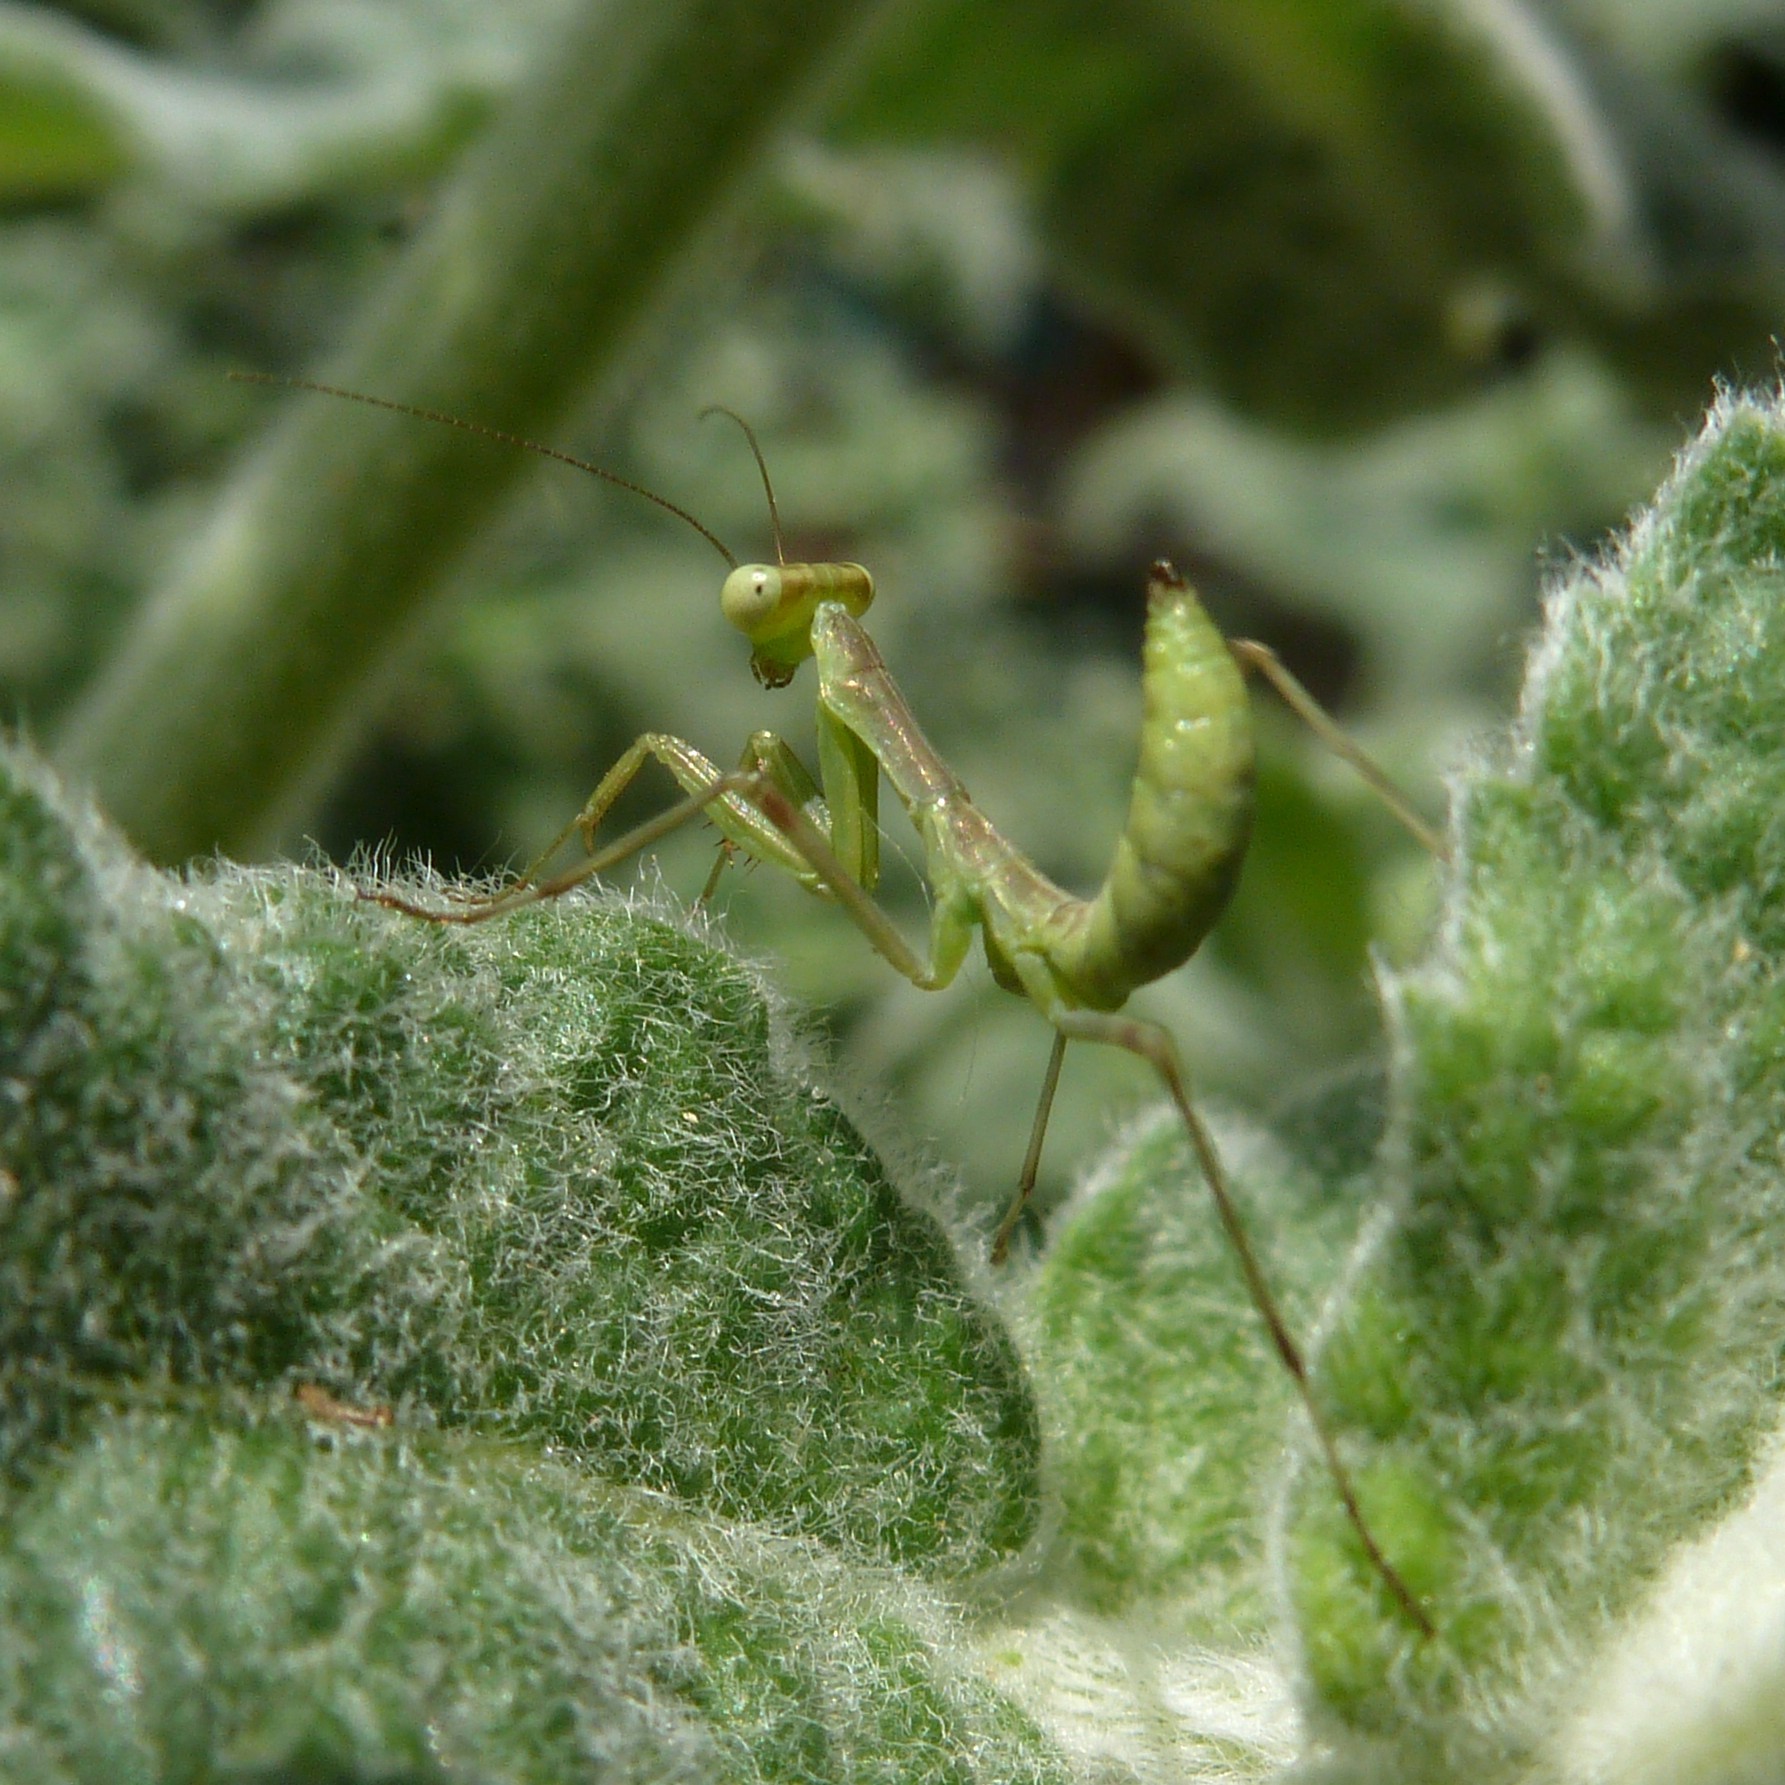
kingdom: Animalia
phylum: Arthropoda
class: Insecta
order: Mantodea
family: Mantidae
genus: Hierodula
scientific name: Hierodula transcaucasica
